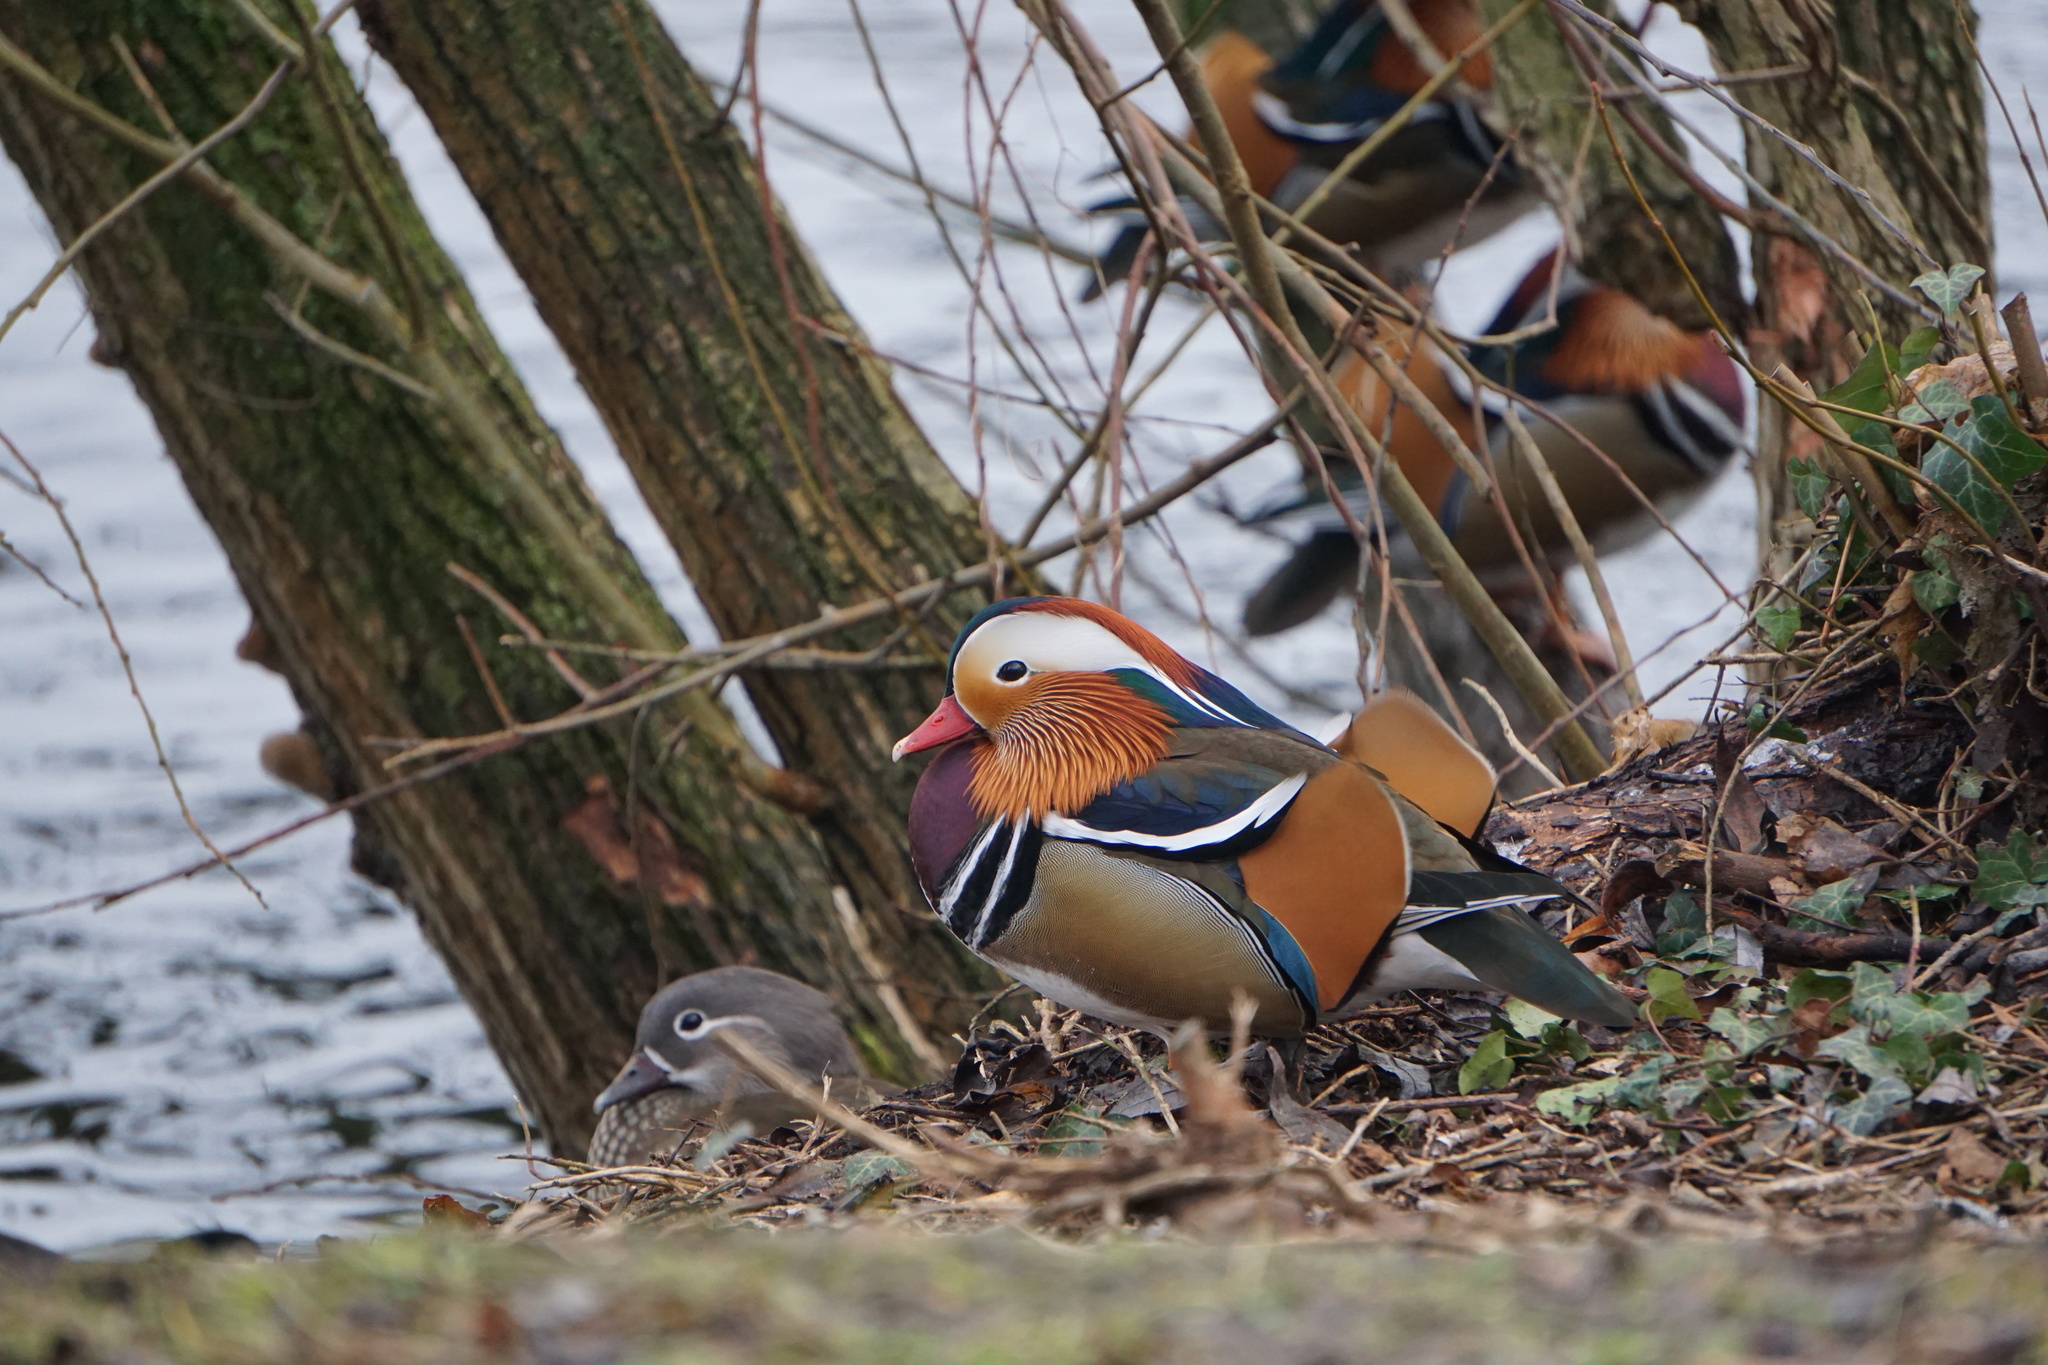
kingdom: Animalia
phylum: Chordata
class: Aves
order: Anseriformes
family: Anatidae
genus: Aix
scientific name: Aix galericulata
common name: Mandarin duck
